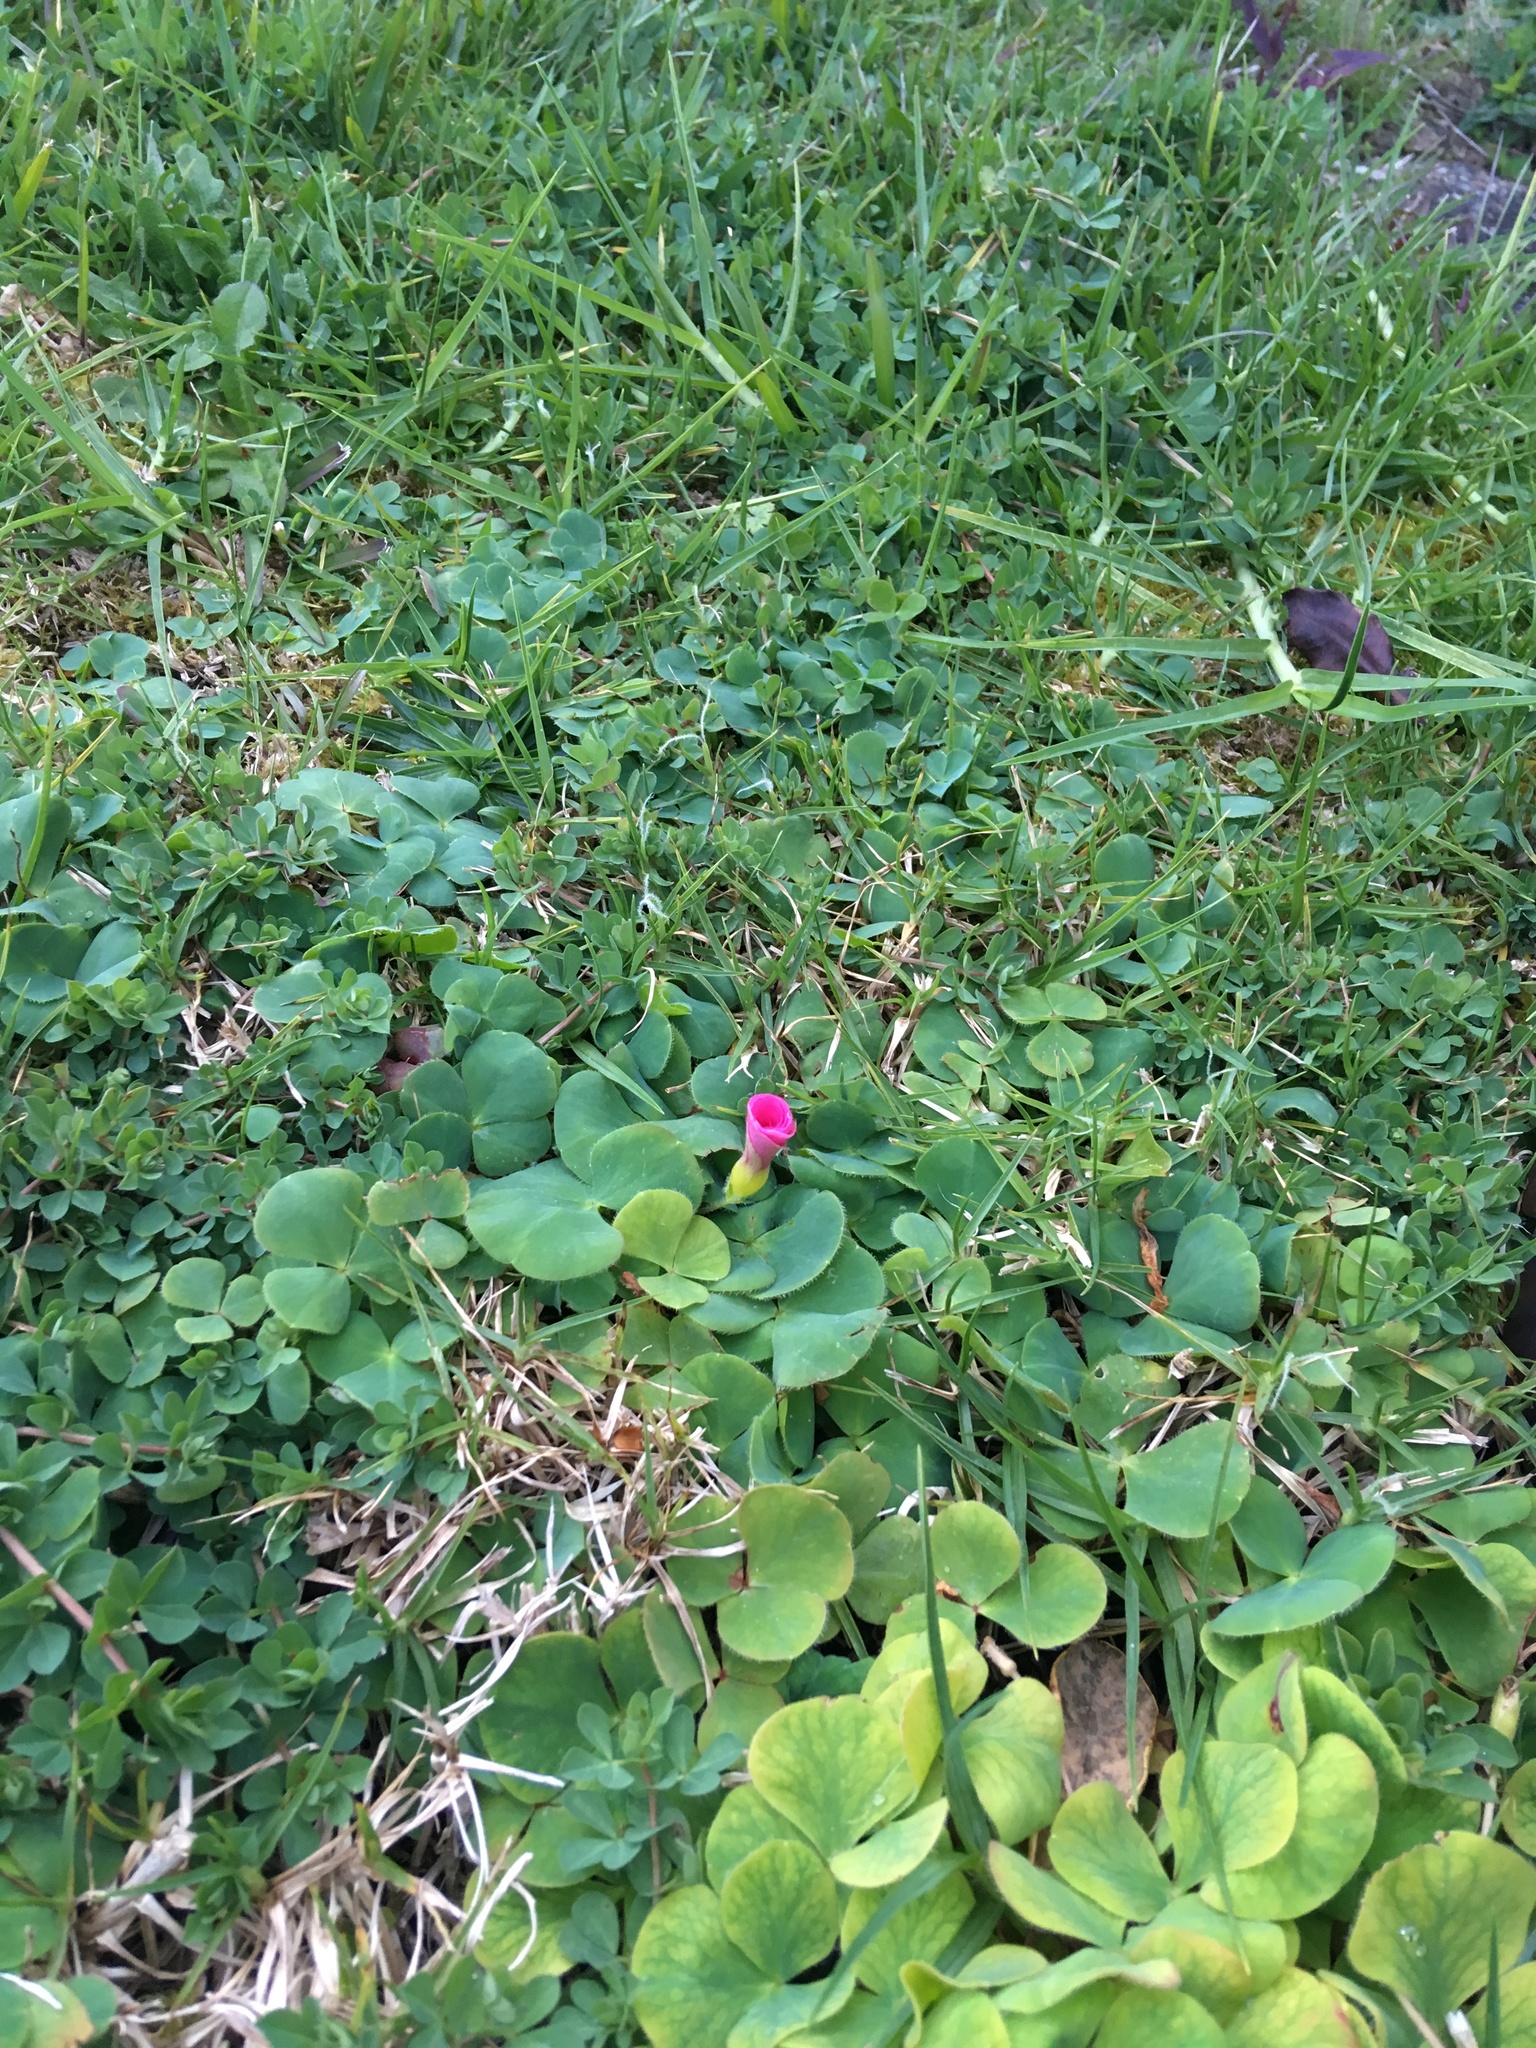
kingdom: Plantae
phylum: Tracheophyta
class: Magnoliopsida
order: Oxalidales
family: Oxalidaceae
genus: Oxalis
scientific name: Oxalis purpurea
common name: Purple woodsorrel
